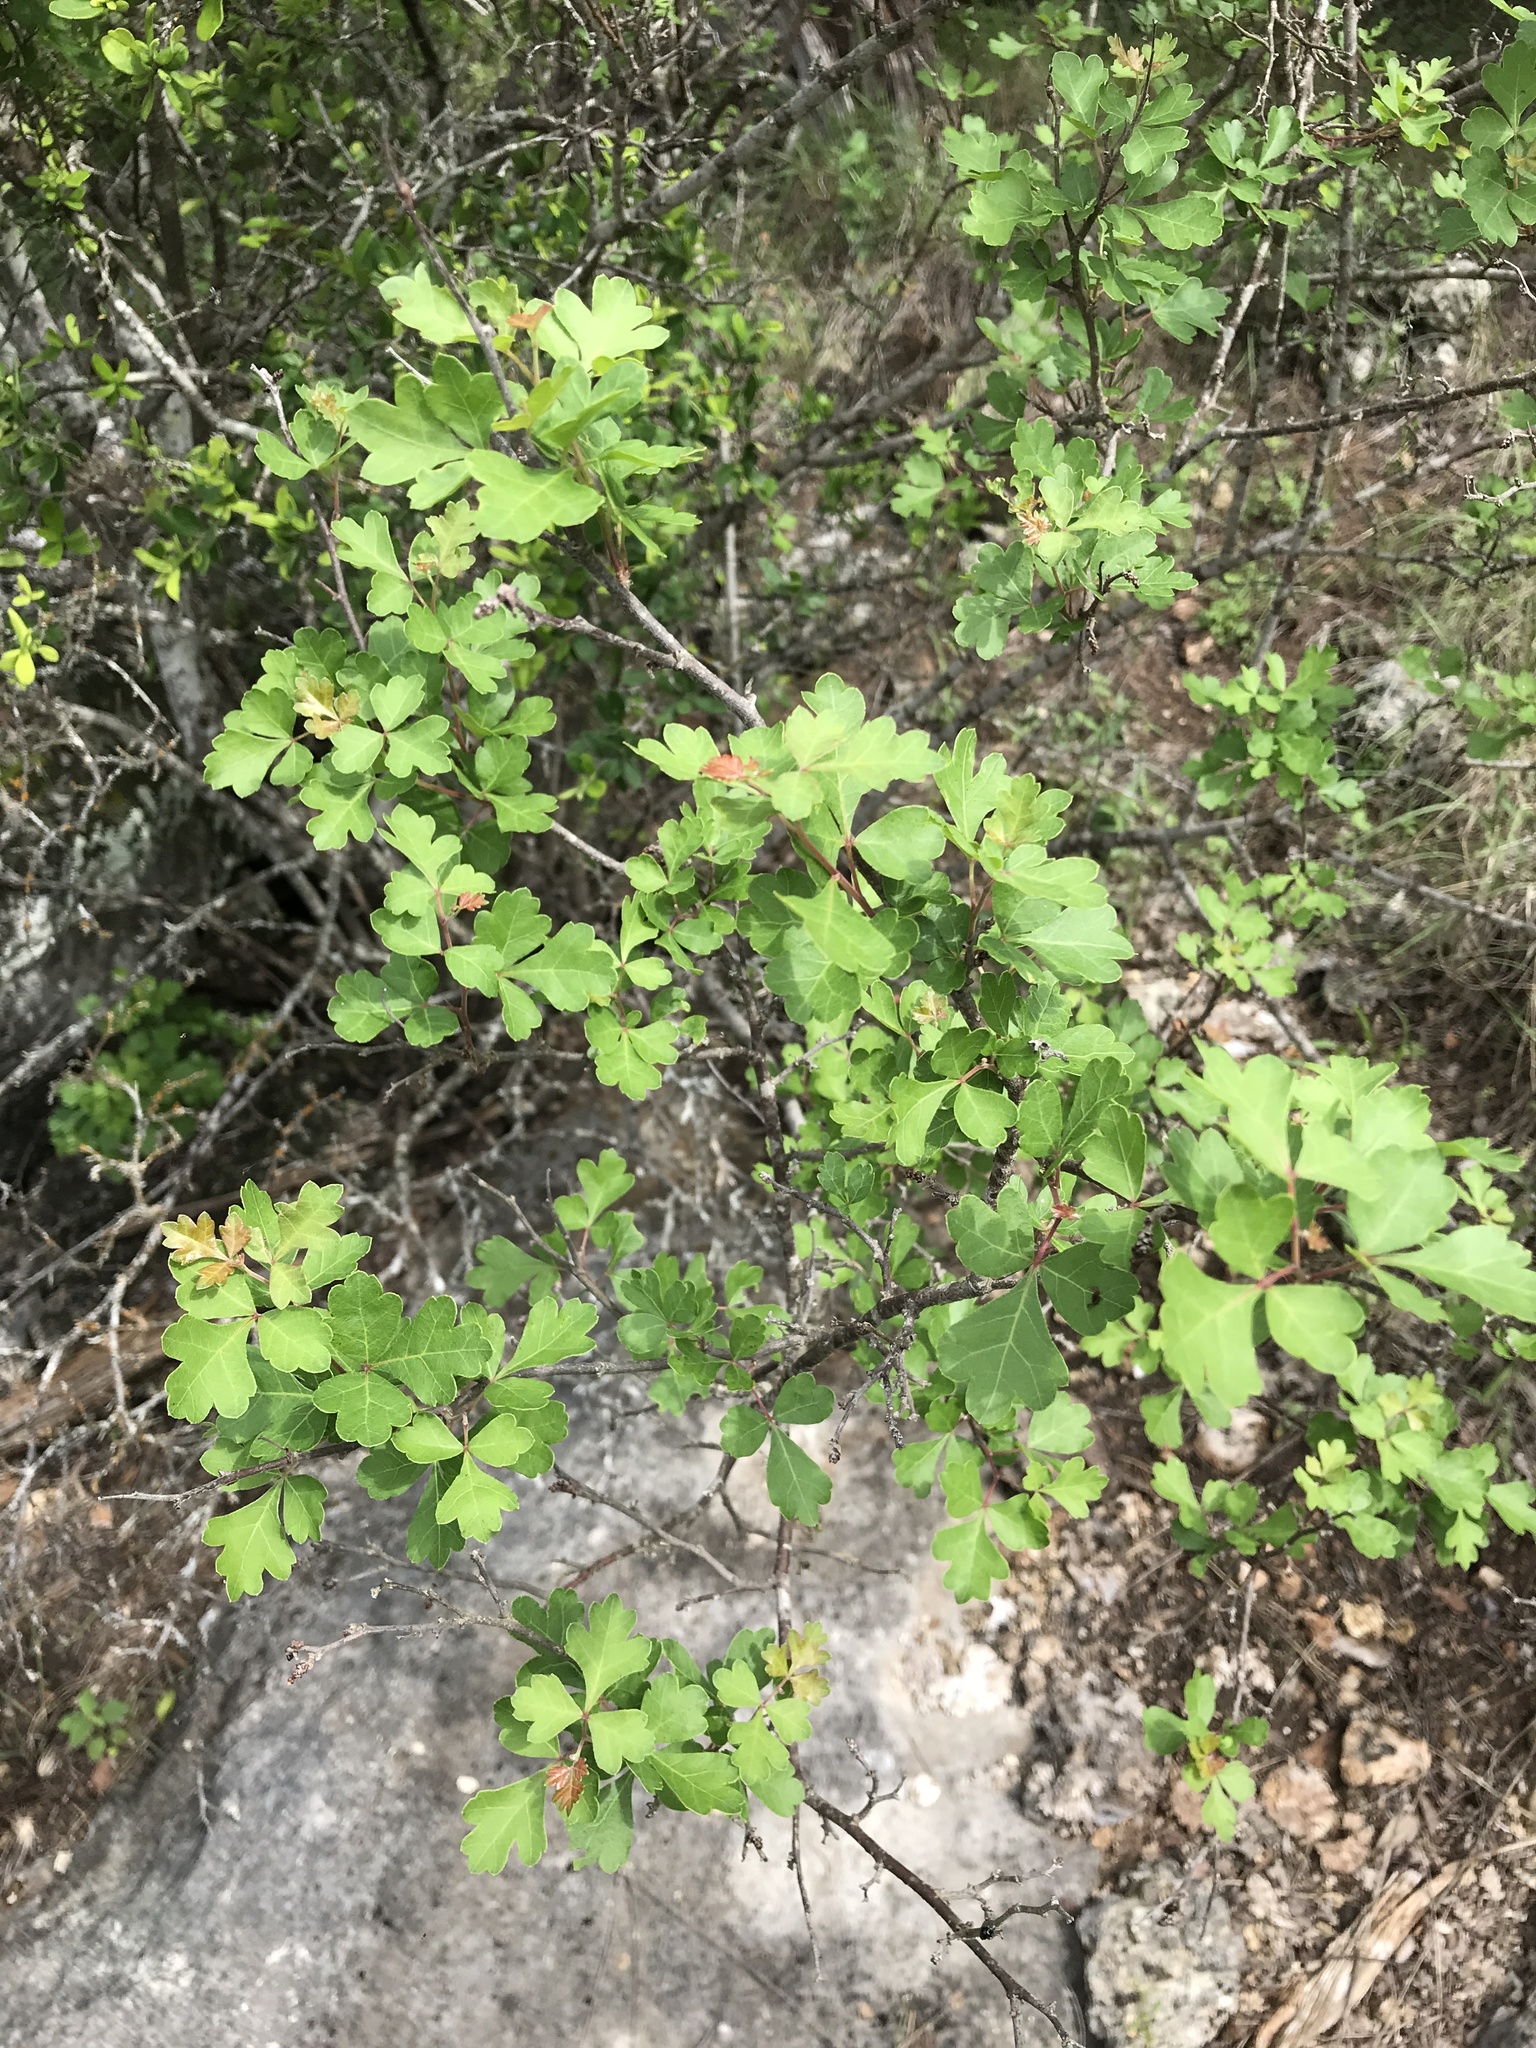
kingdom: Plantae
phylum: Tracheophyta
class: Magnoliopsida
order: Sapindales
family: Anacardiaceae
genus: Rhus
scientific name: Rhus aromatica
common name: Aromatic sumac
